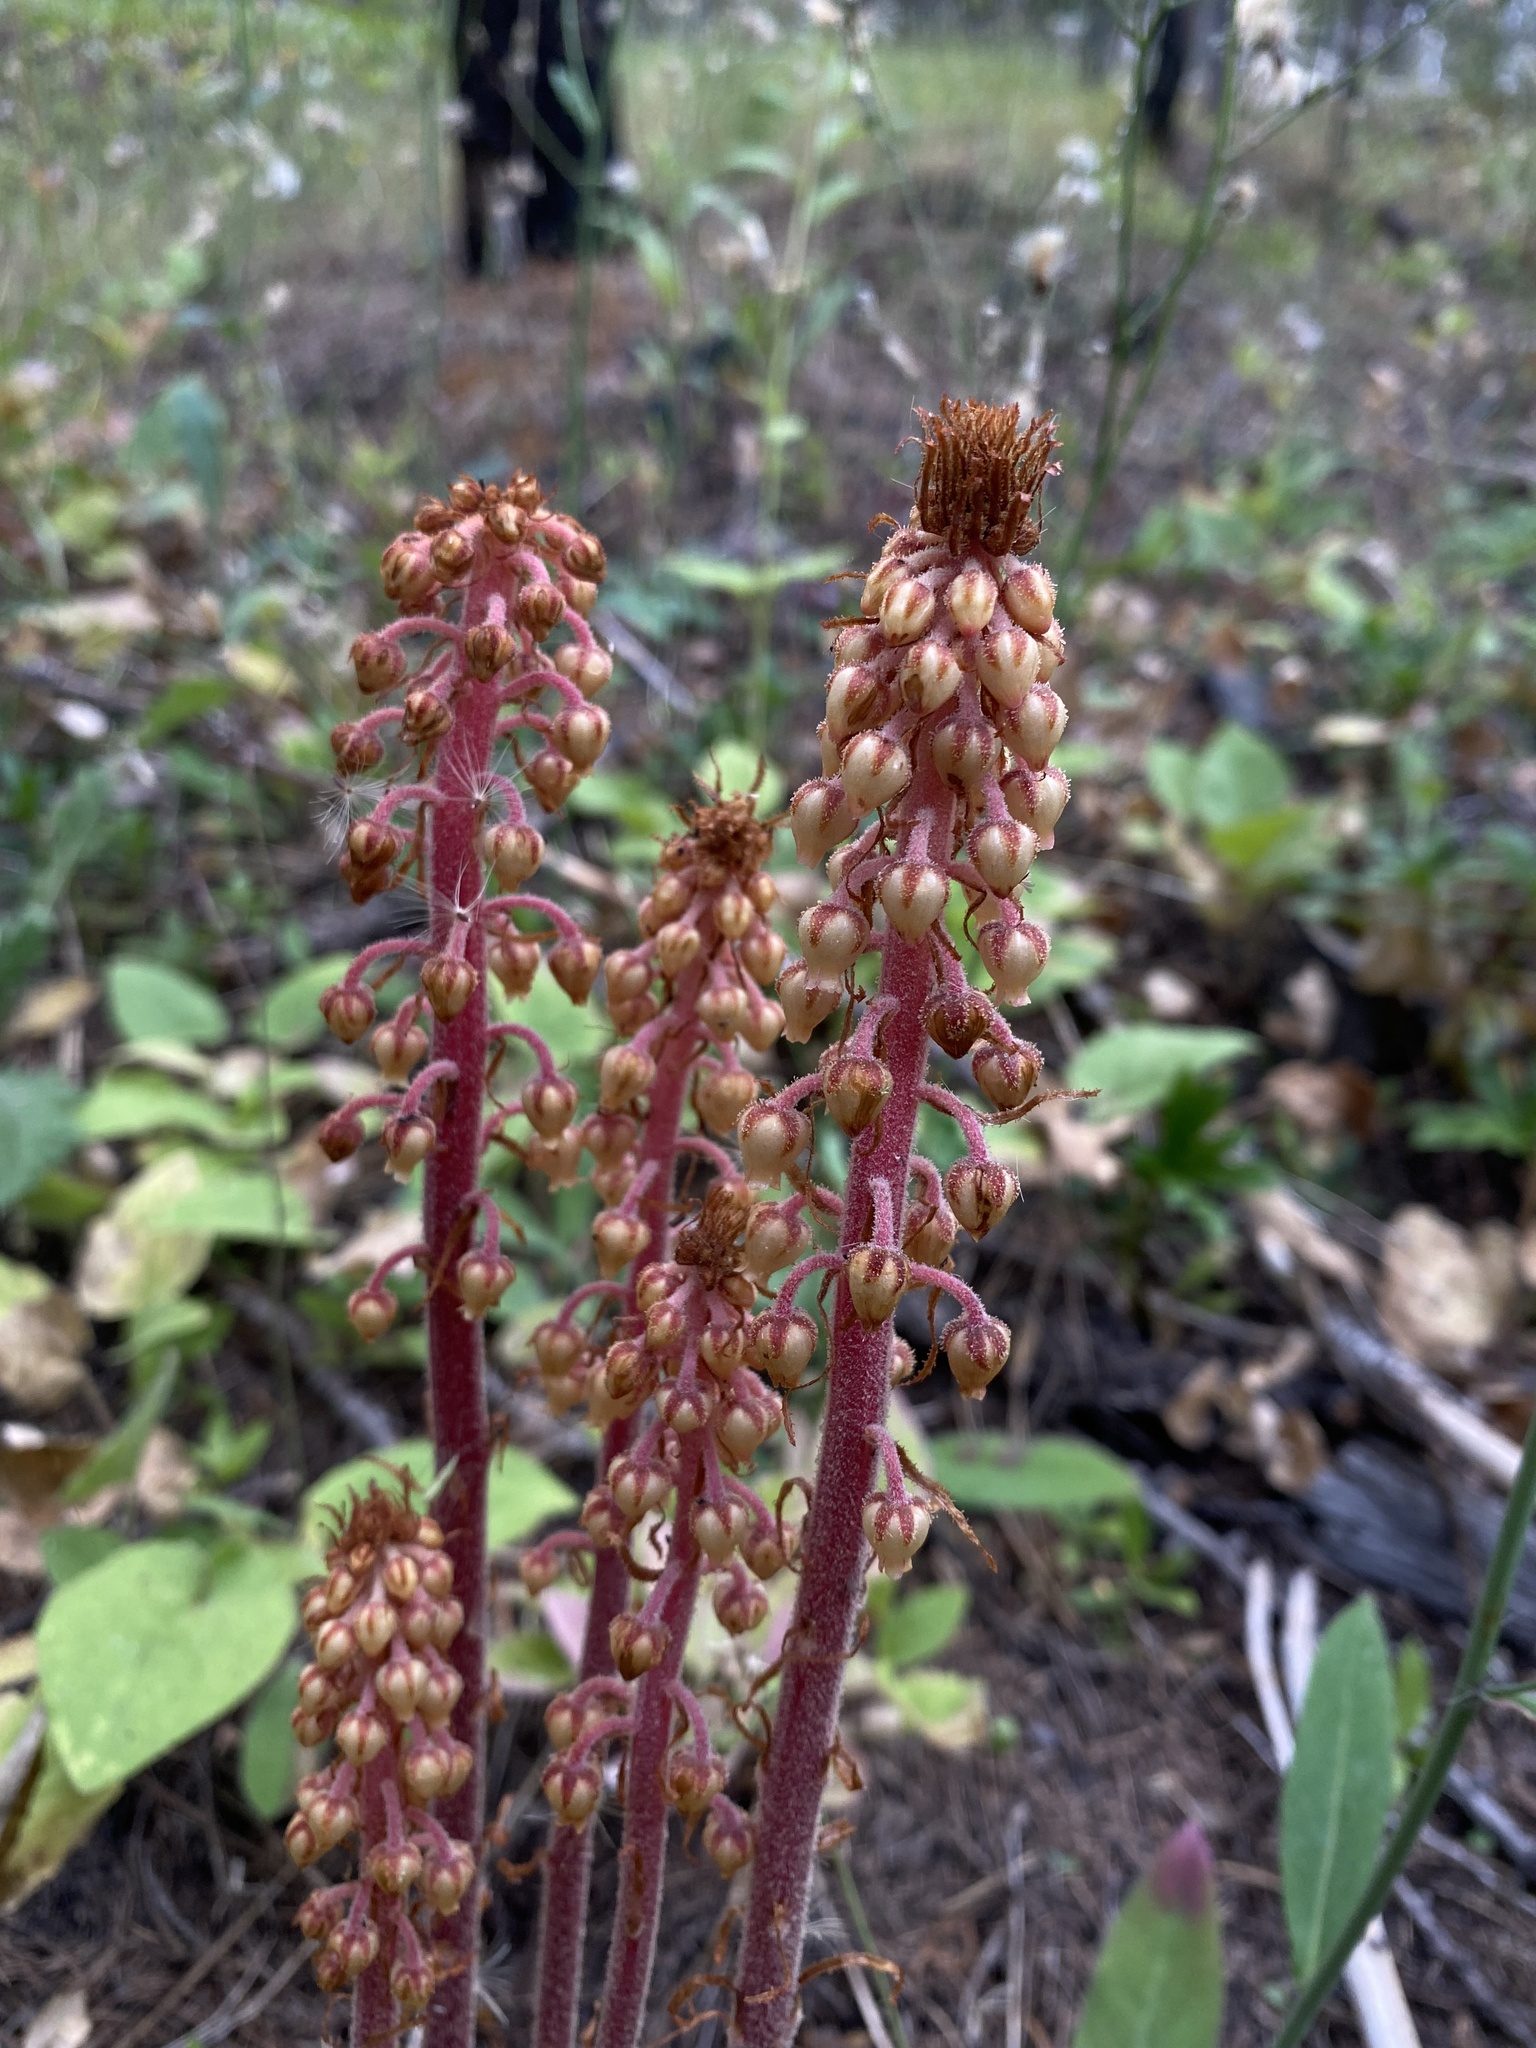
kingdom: Plantae
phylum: Tracheophyta
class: Magnoliopsida
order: Ericales
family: Ericaceae
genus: Pterospora
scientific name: Pterospora andromedea
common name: Giant bird's-nest
